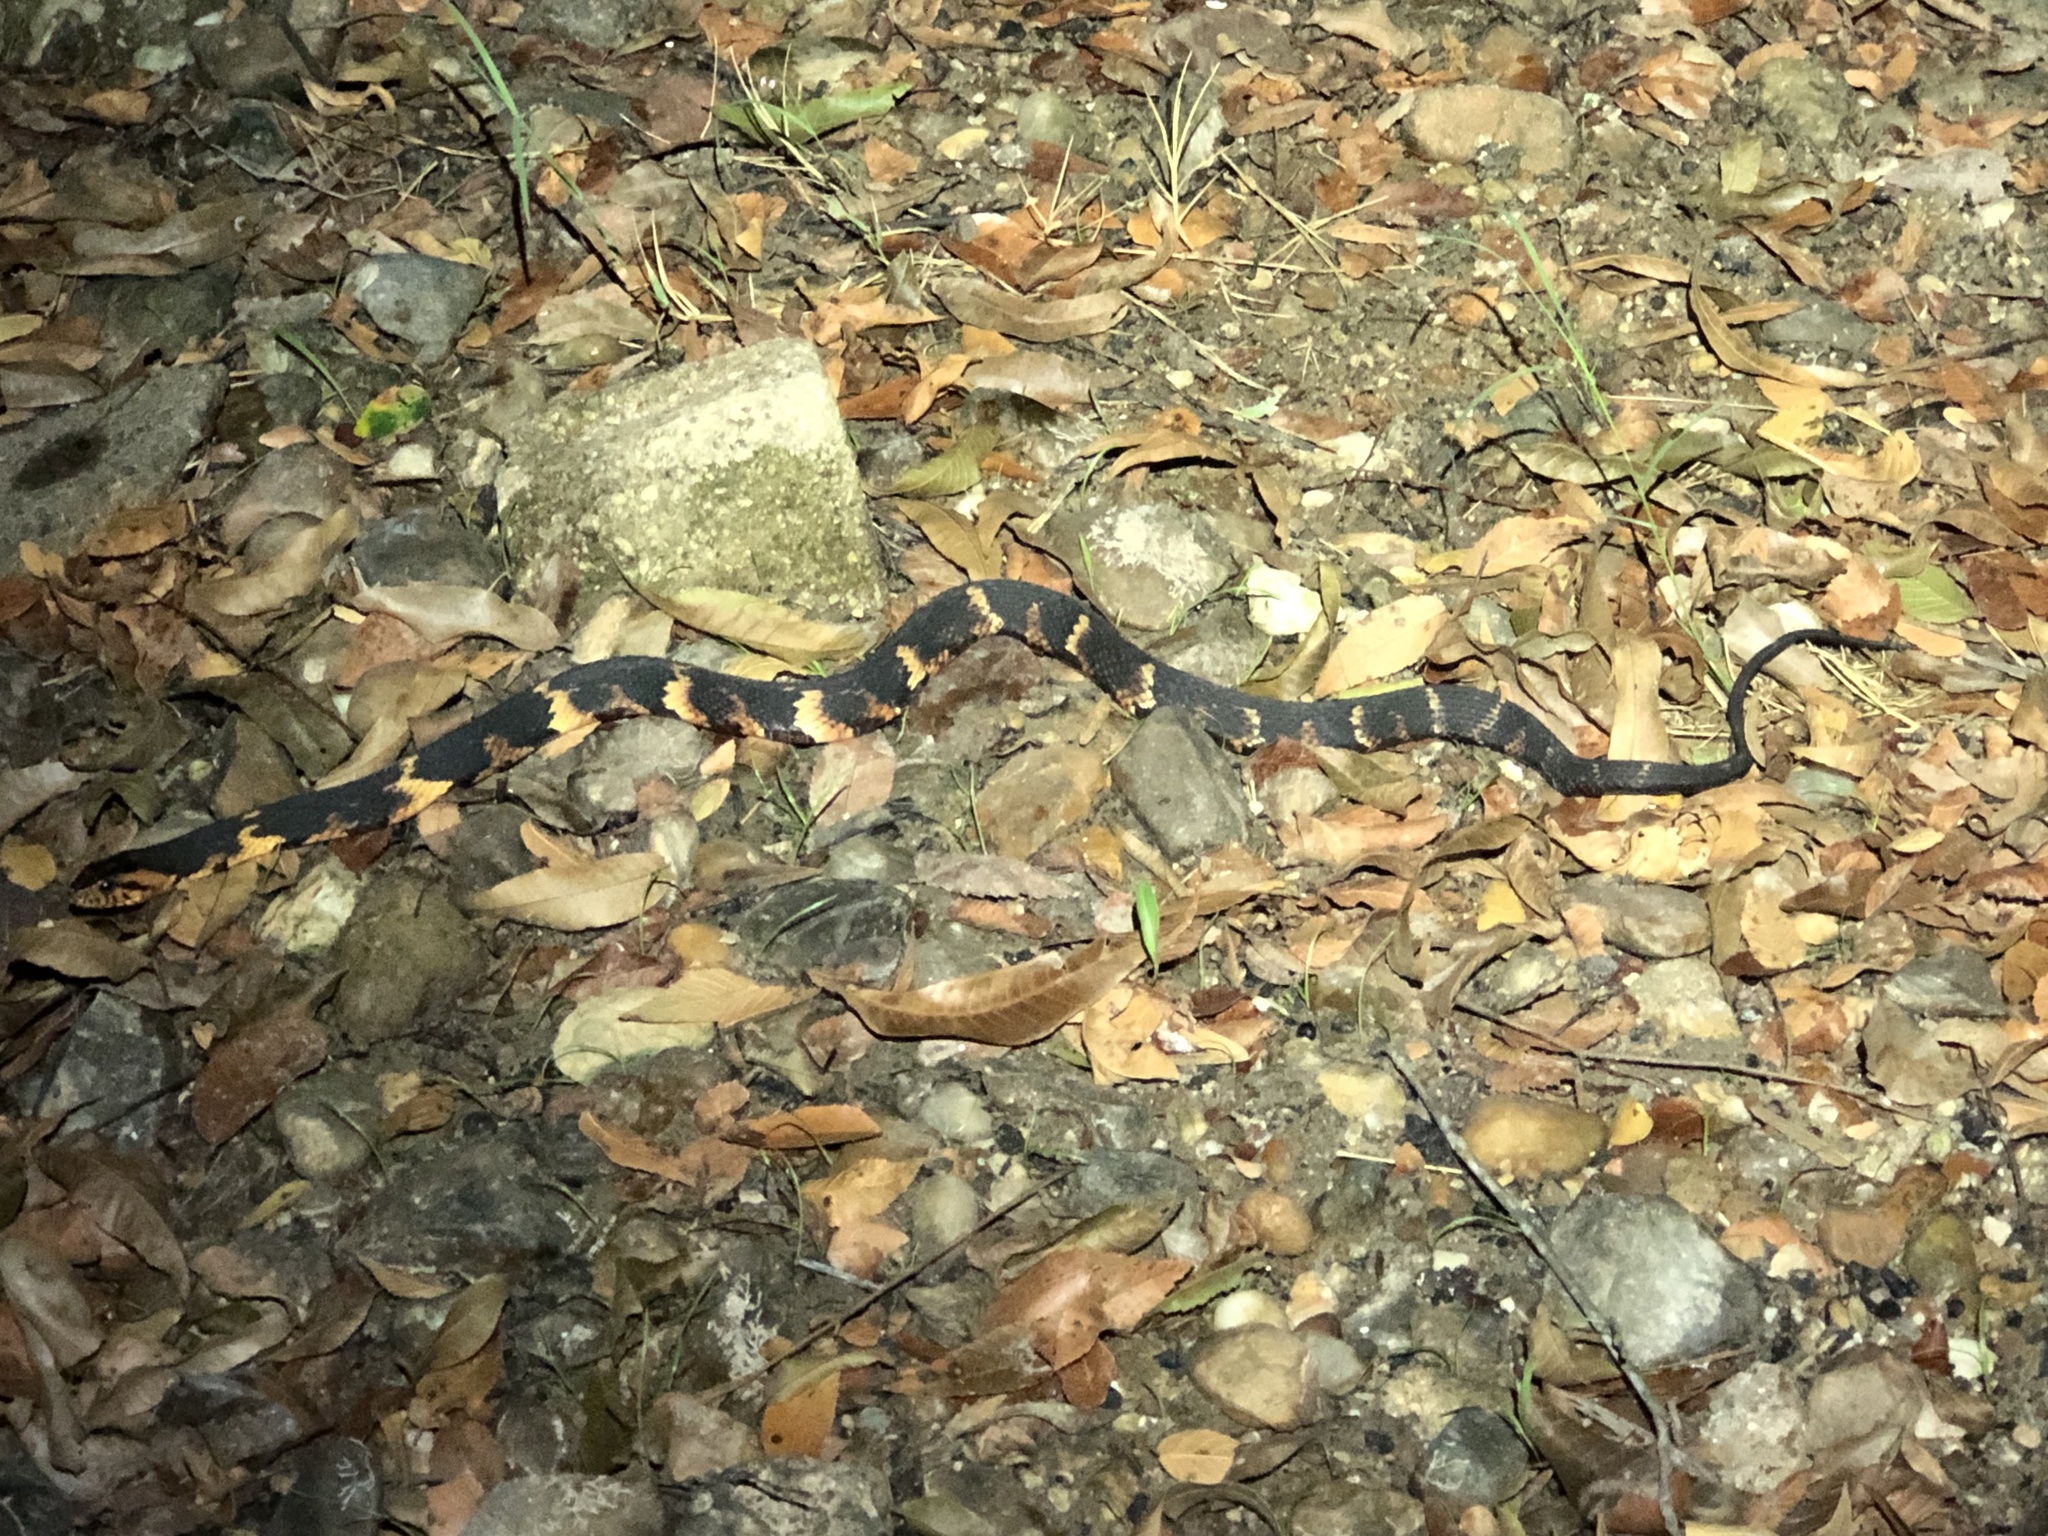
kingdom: Animalia
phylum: Chordata
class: Squamata
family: Colubridae
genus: Nerodia
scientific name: Nerodia fasciata
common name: Southern water snake
